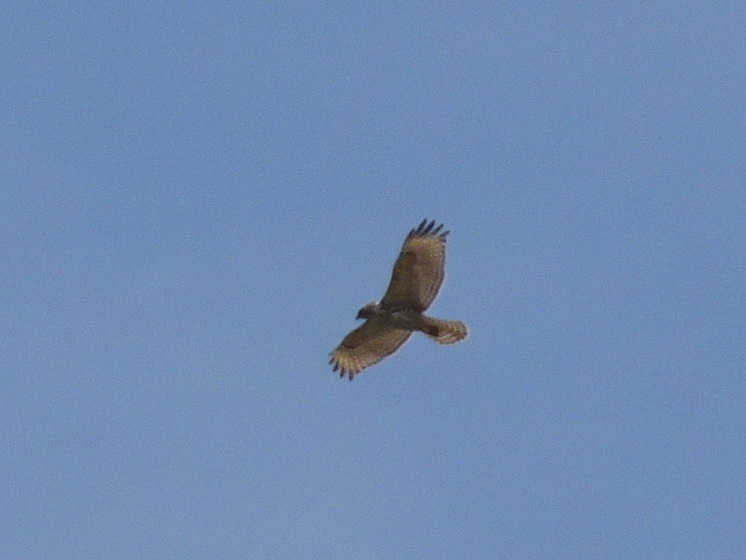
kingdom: Animalia
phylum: Chordata
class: Aves
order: Accipitriformes
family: Accipitridae
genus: Buteo
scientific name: Buteo lineatus
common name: Red-shouldered hawk
